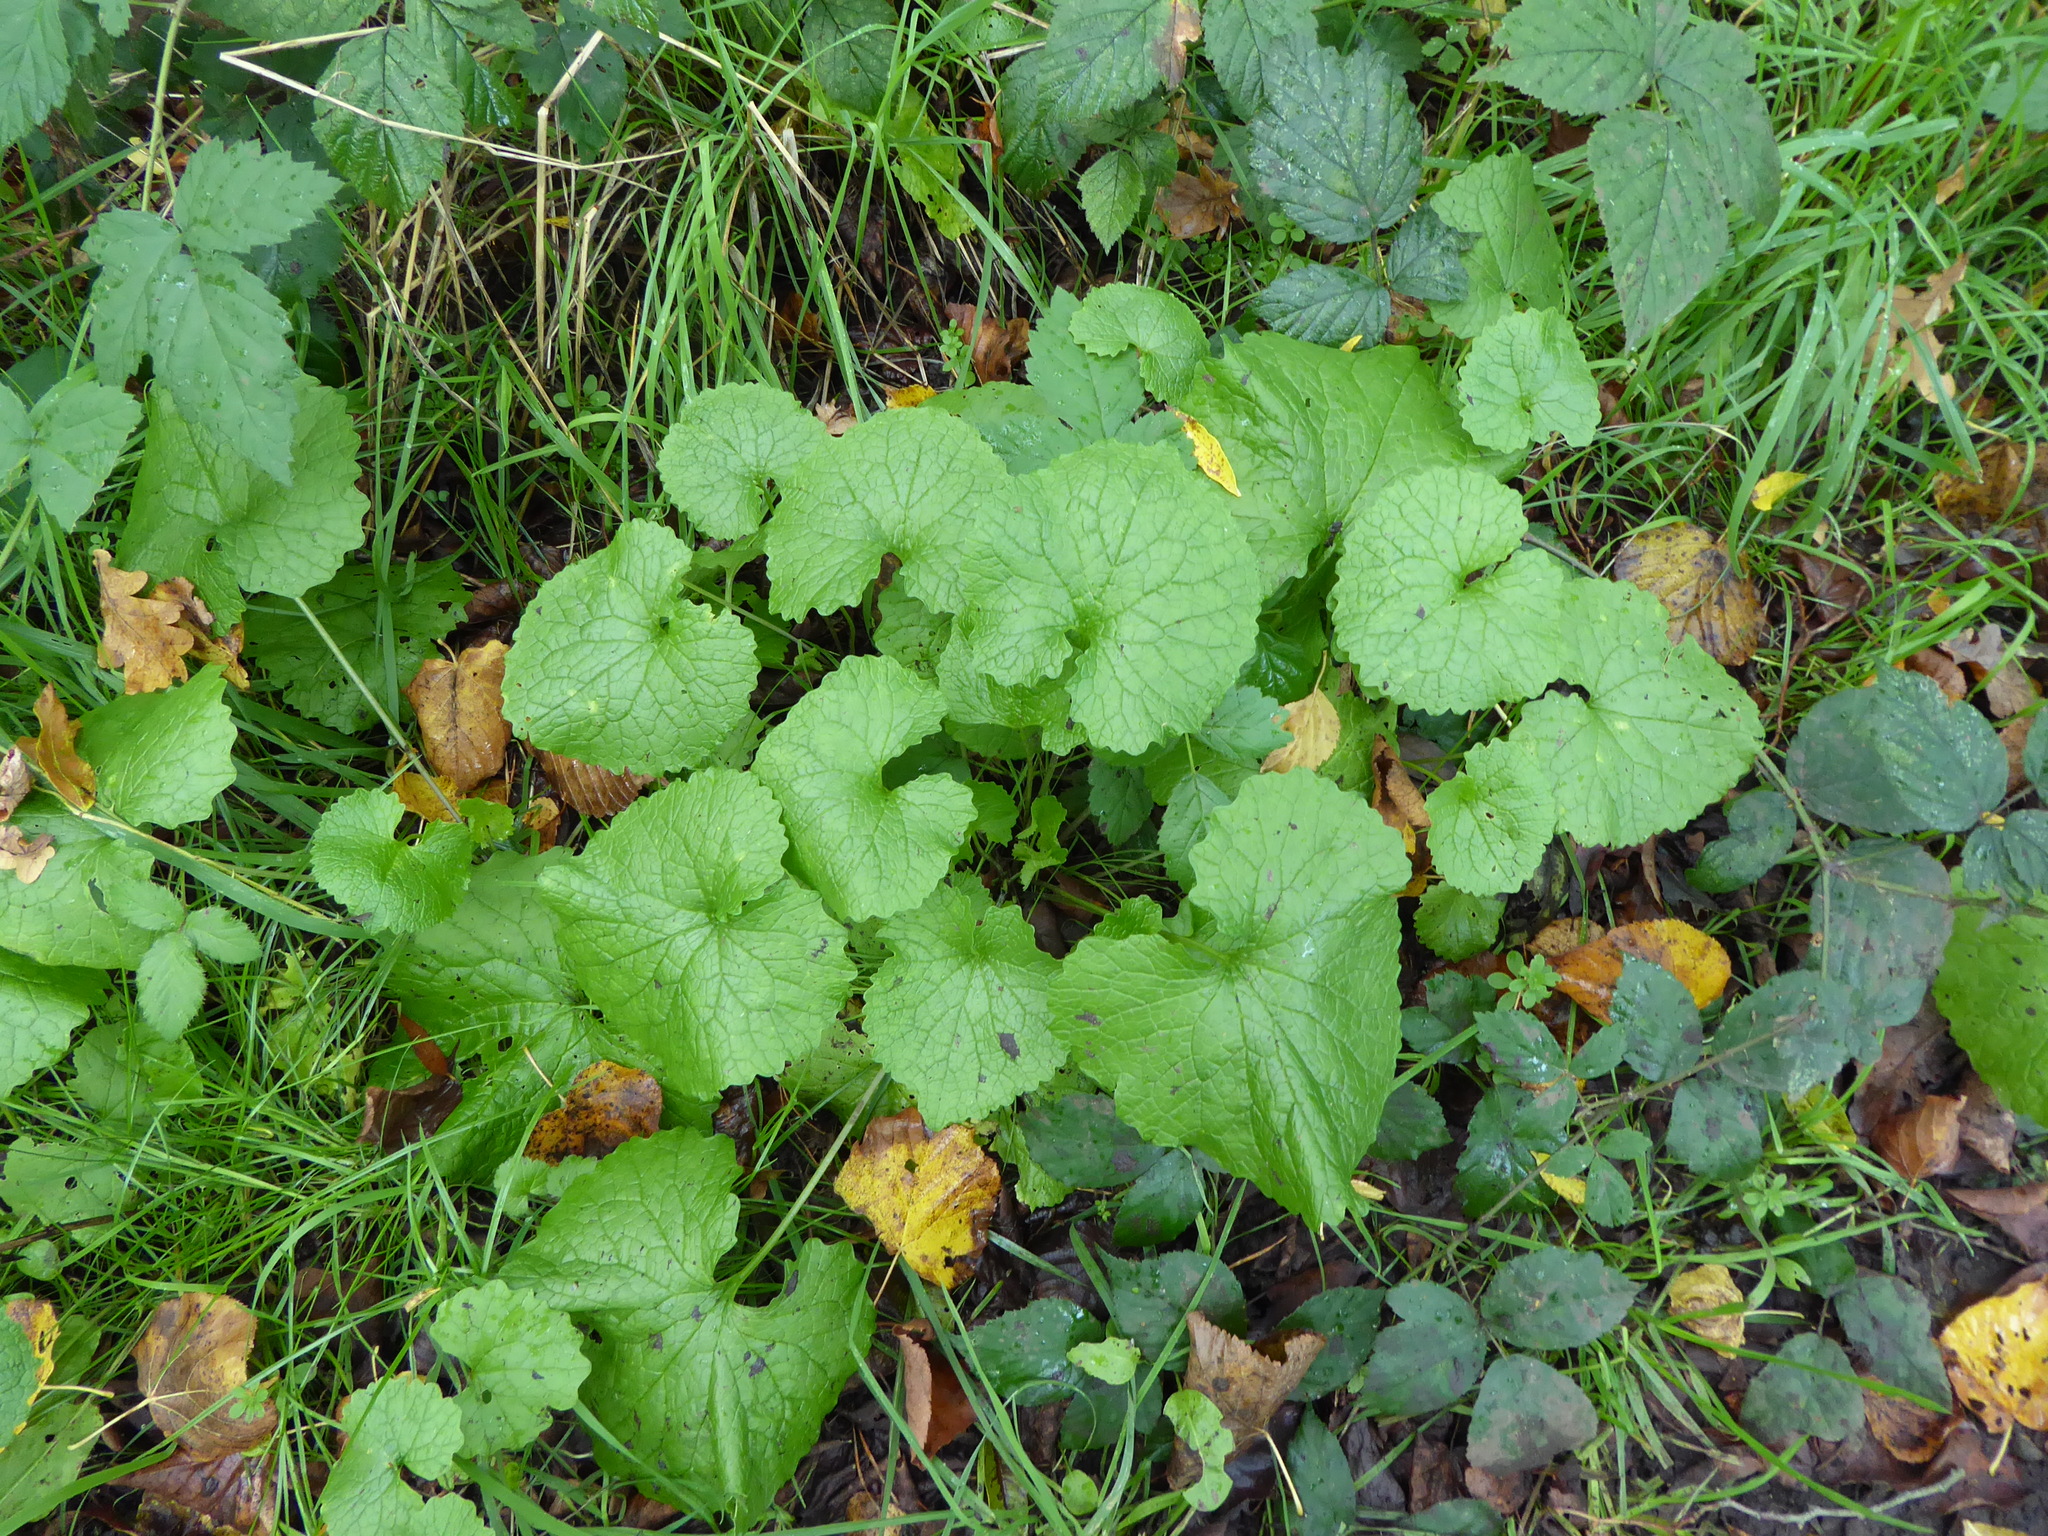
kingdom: Plantae
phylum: Tracheophyta
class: Magnoliopsida
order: Brassicales
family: Brassicaceae
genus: Alliaria
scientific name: Alliaria petiolata
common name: Garlic mustard
